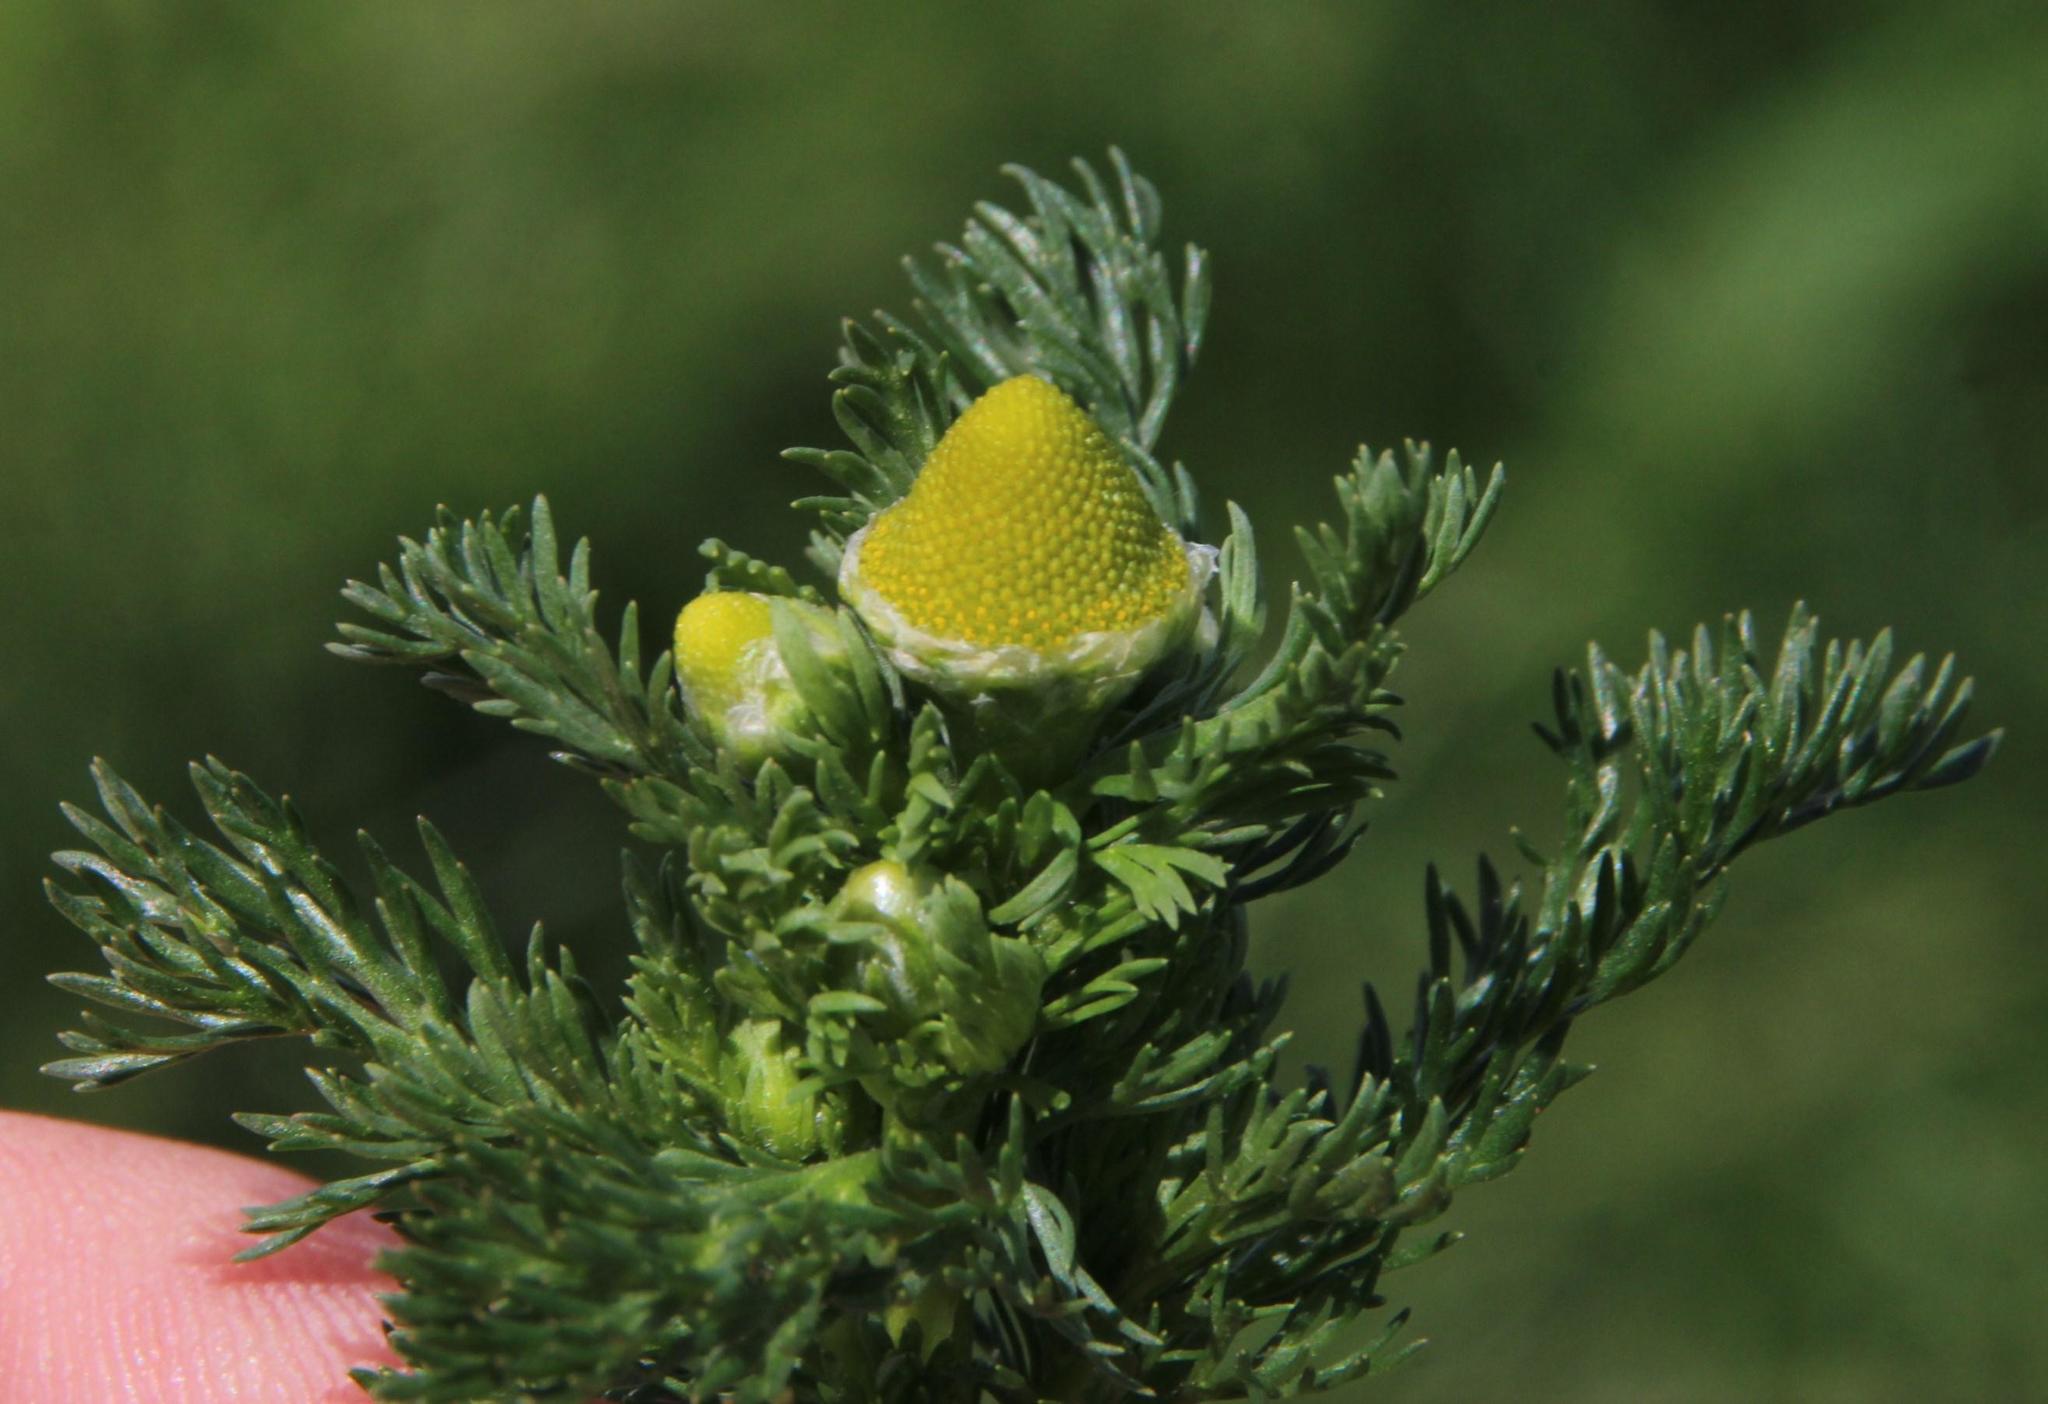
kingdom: Plantae
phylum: Tracheophyta
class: Magnoliopsida
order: Asterales
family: Asteraceae
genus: Matricaria
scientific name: Matricaria discoidea
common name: Disc mayweed
